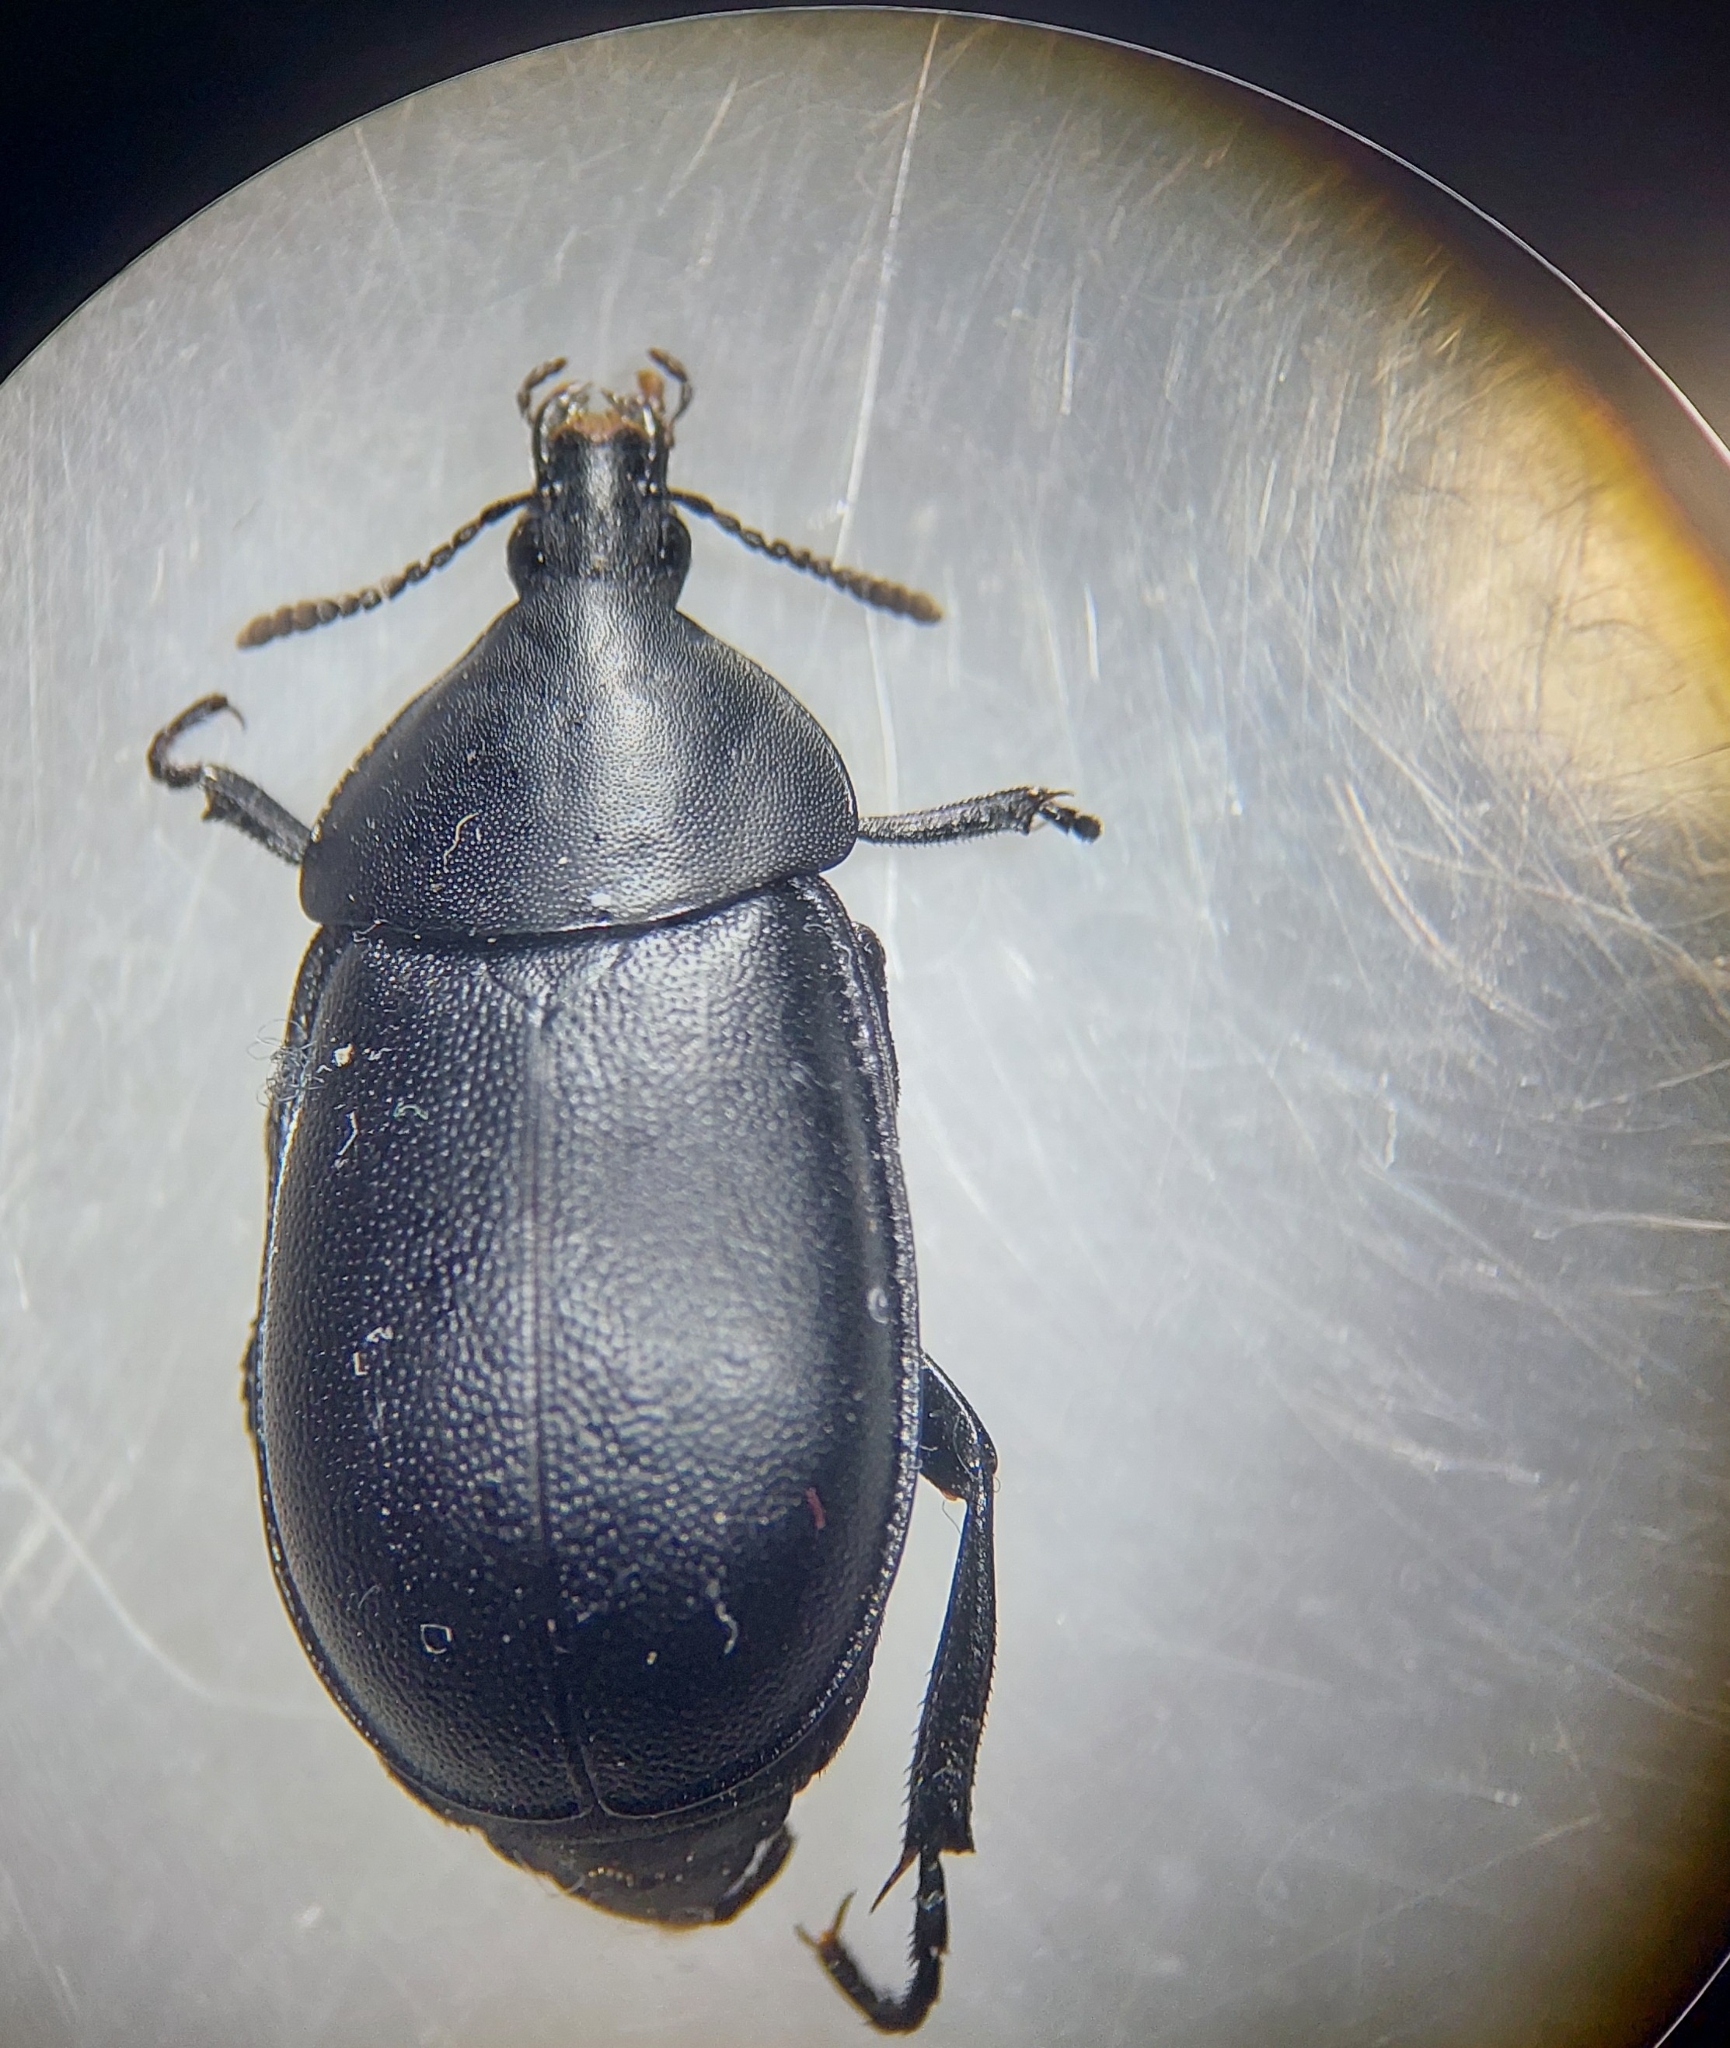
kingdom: Animalia
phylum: Arthropoda
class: Insecta
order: Coleoptera
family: Staphylinidae
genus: Silpha
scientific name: Silpha laevigata
